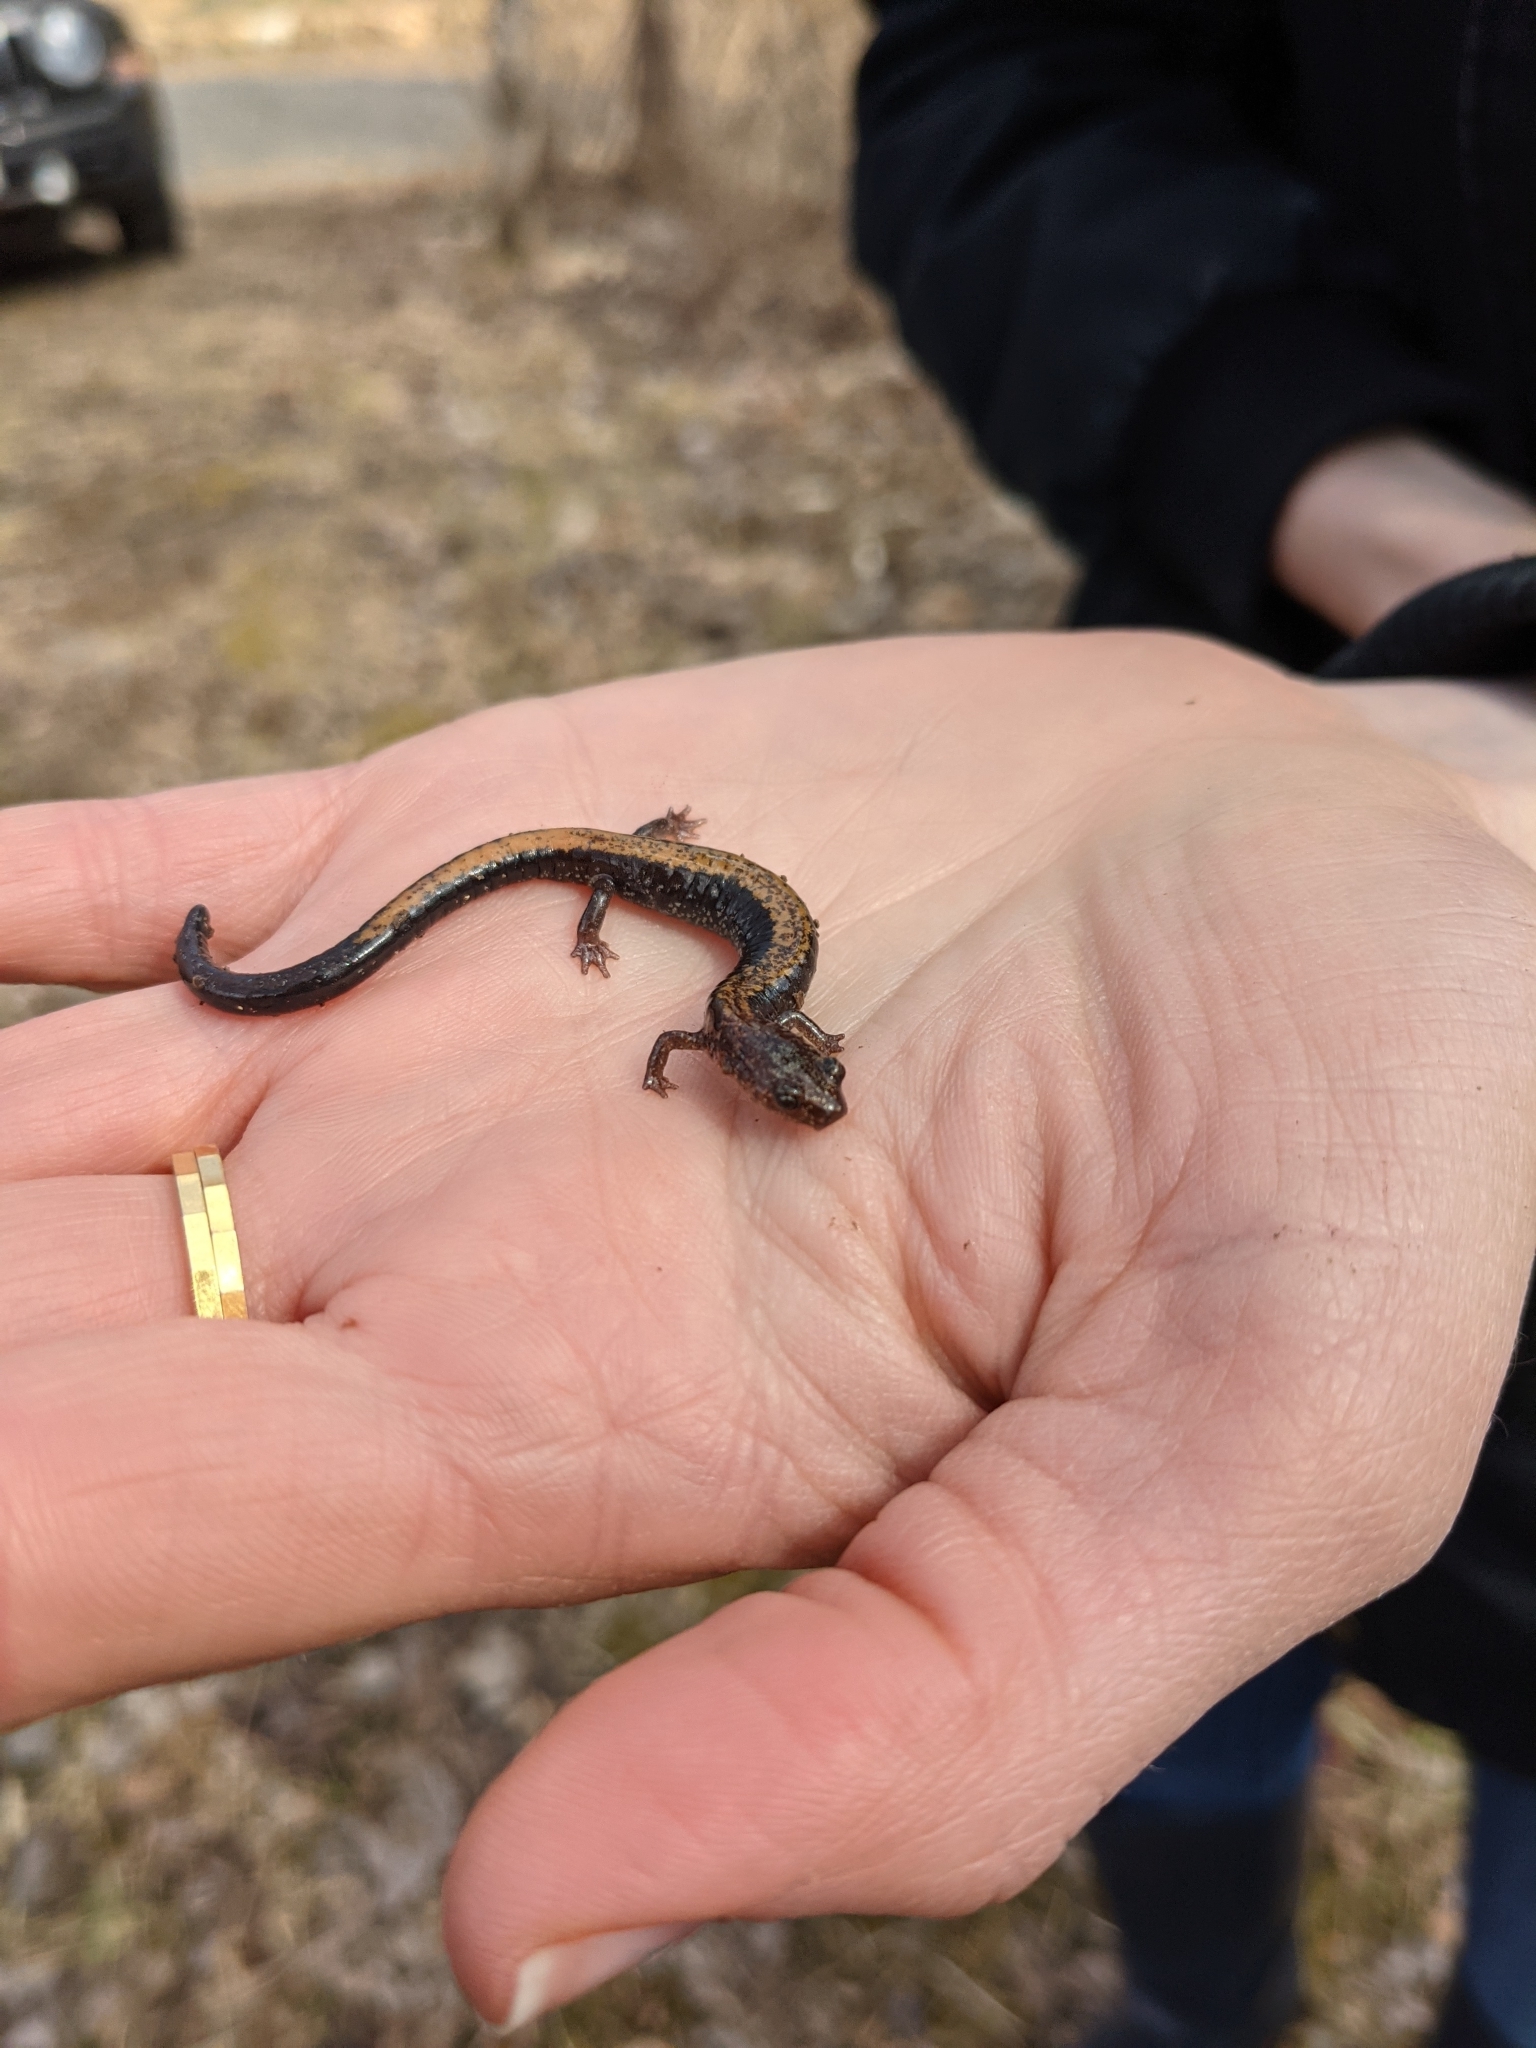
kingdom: Animalia
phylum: Chordata
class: Amphibia
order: Caudata
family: Plethodontidae
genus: Plethodon
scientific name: Plethodon cinereus
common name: Redback salamander
